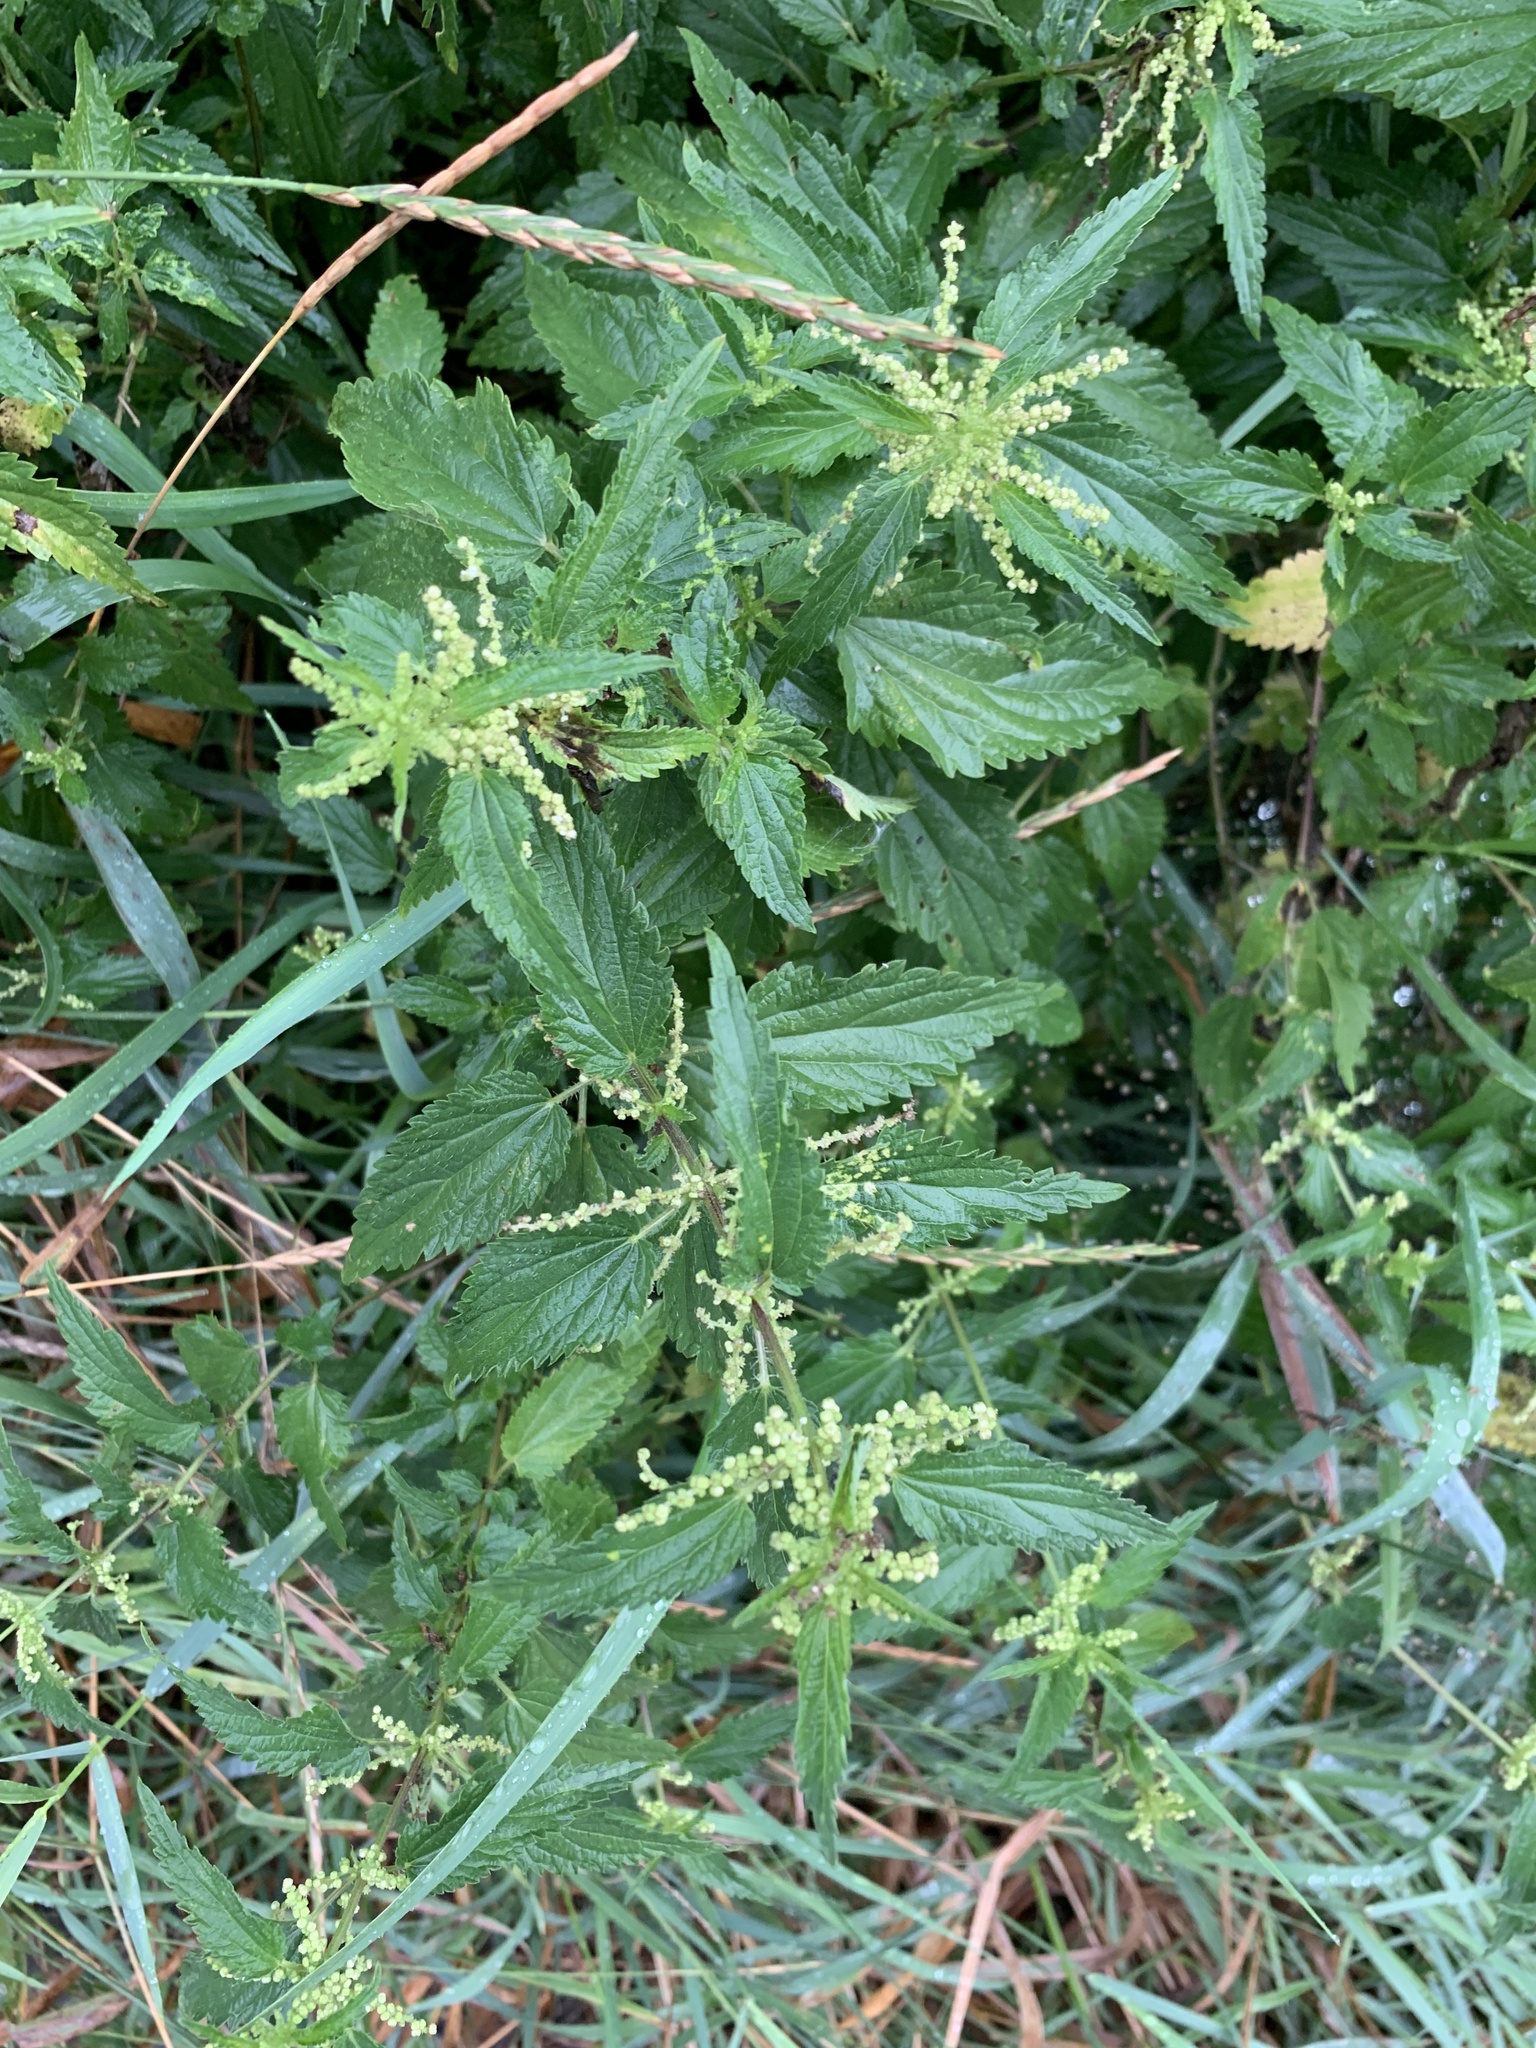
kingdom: Plantae
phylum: Tracheophyta
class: Magnoliopsida
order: Rosales
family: Urticaceae
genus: Urtica
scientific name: Urtica dioica
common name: Common nettle
